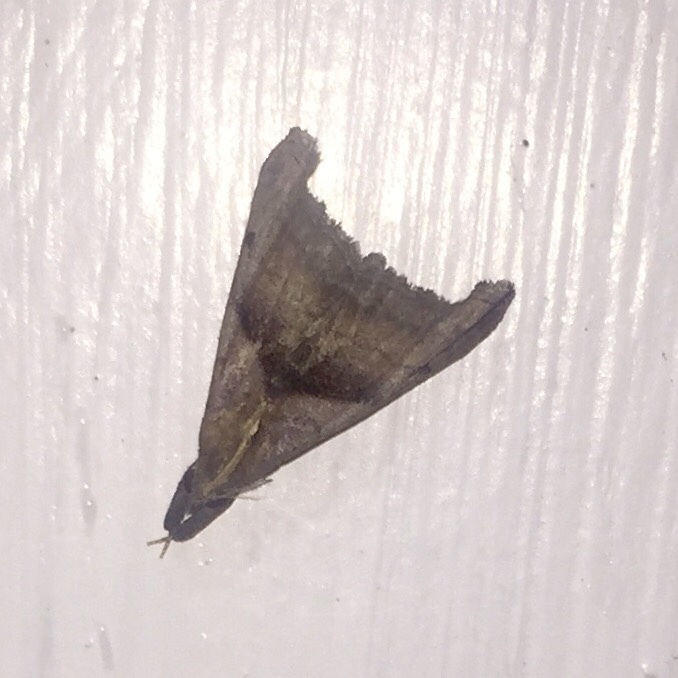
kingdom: Animalia
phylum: Arthropoda
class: Insecta
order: Lepidoptera
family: Erebidae
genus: Palthis
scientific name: Palthis angulalis
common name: Dark-spotted palthis moth
